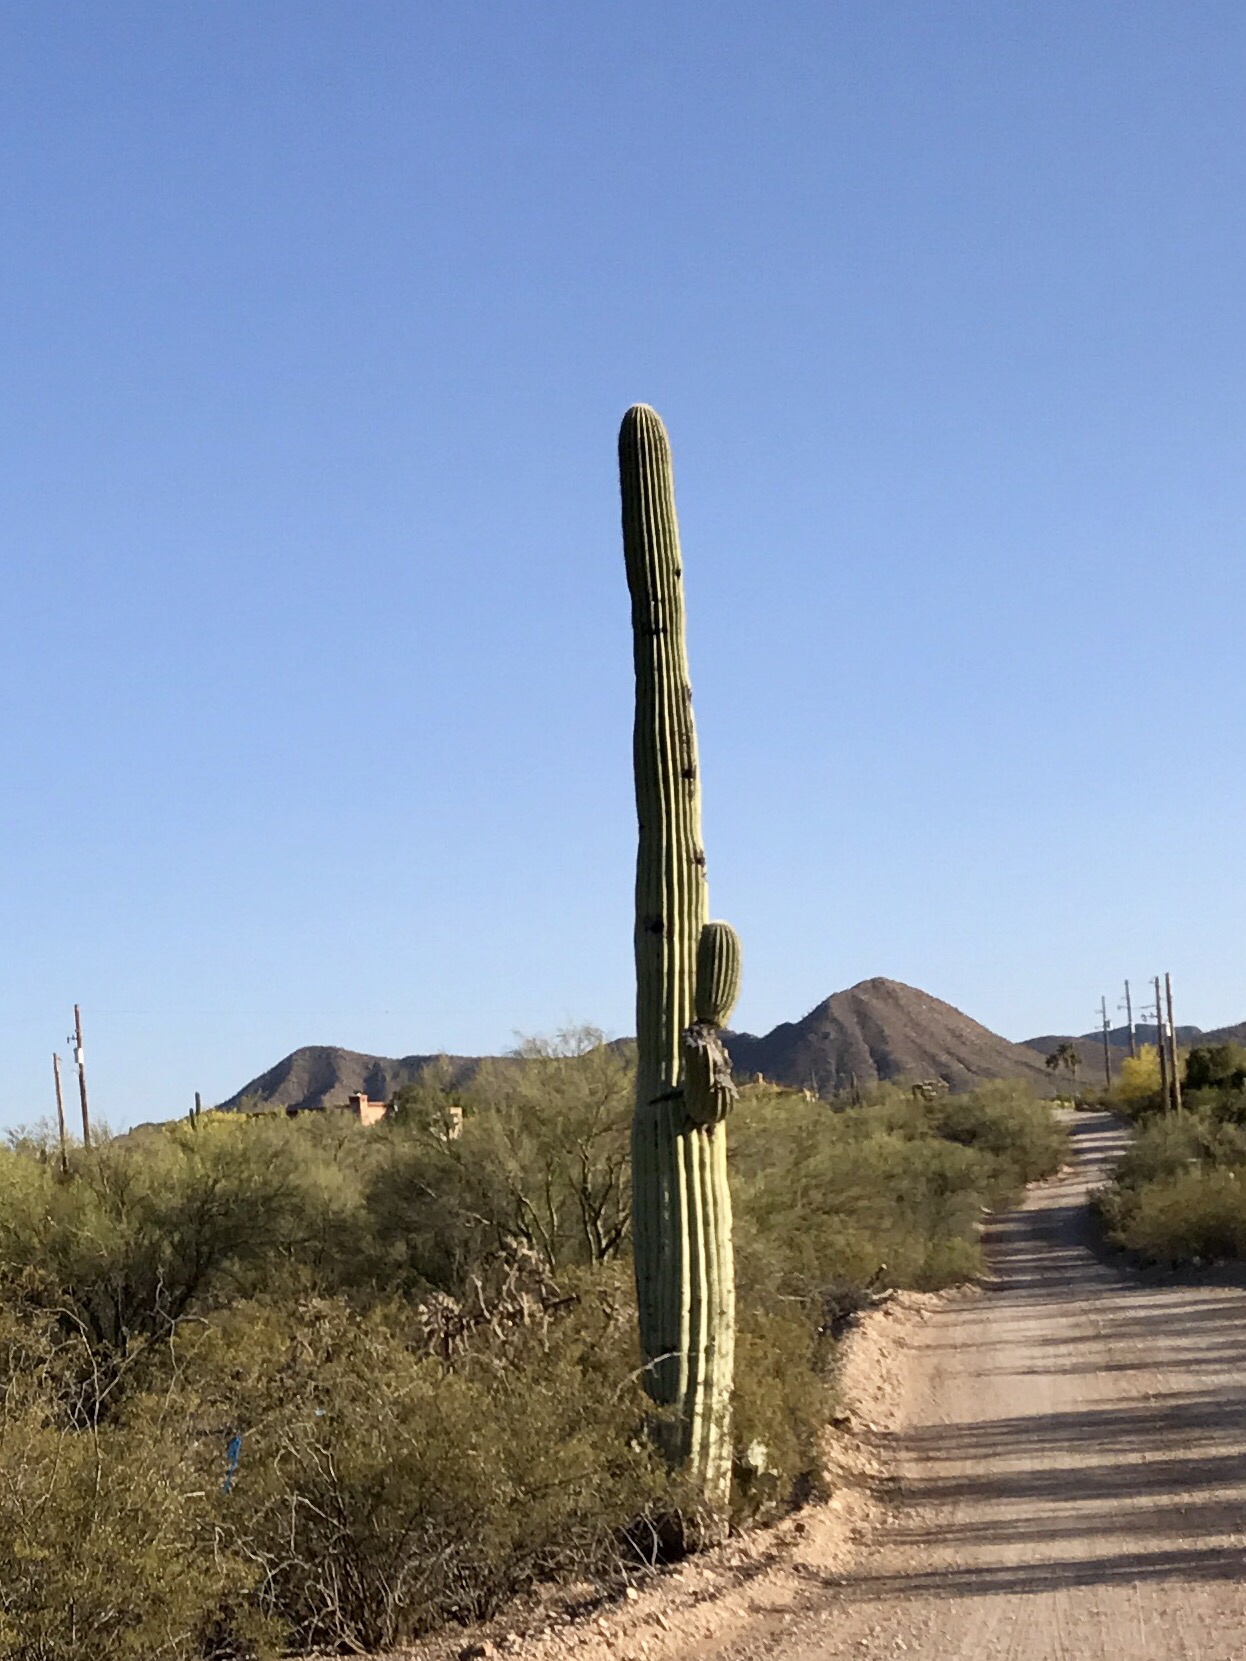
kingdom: Plantae
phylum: Tracheophyta
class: Magnoliopsida
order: Caryophyllales
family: Cactaceae
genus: Carnegiea
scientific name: Carnegiea gigantea
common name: Saguaro
